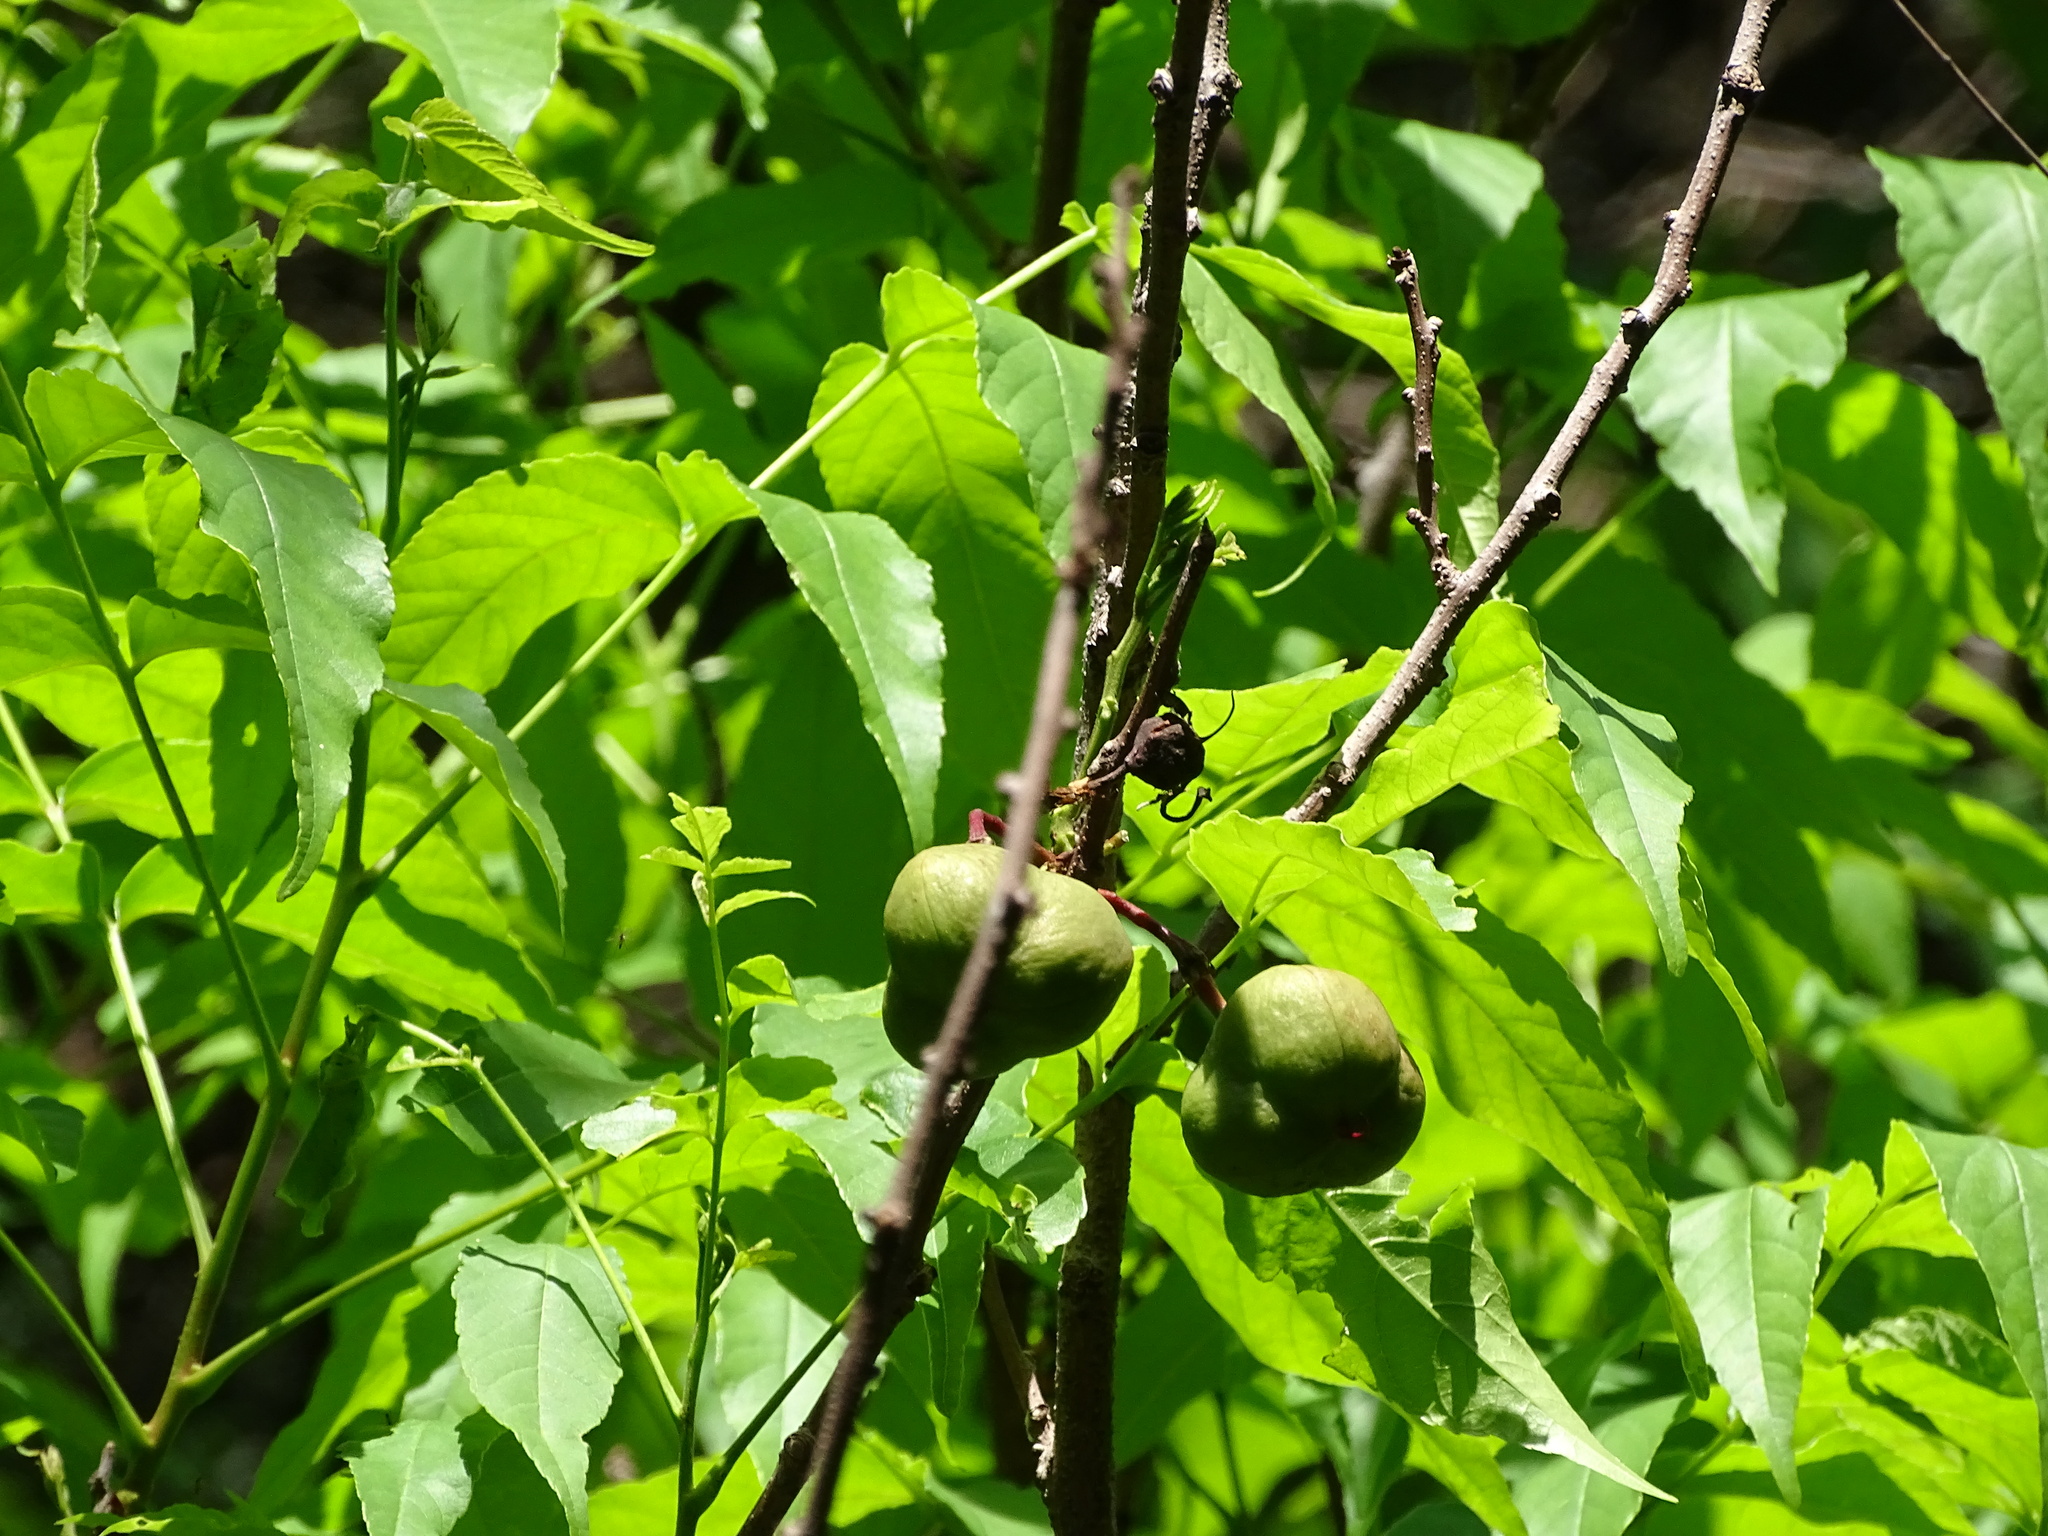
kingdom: Plantae
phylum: Tracheophyta
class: Magnoliopsida
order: Sapindales
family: Sapindaceae
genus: Ungnadia
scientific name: Ungnadia speciosa
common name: Texas-buckeye
